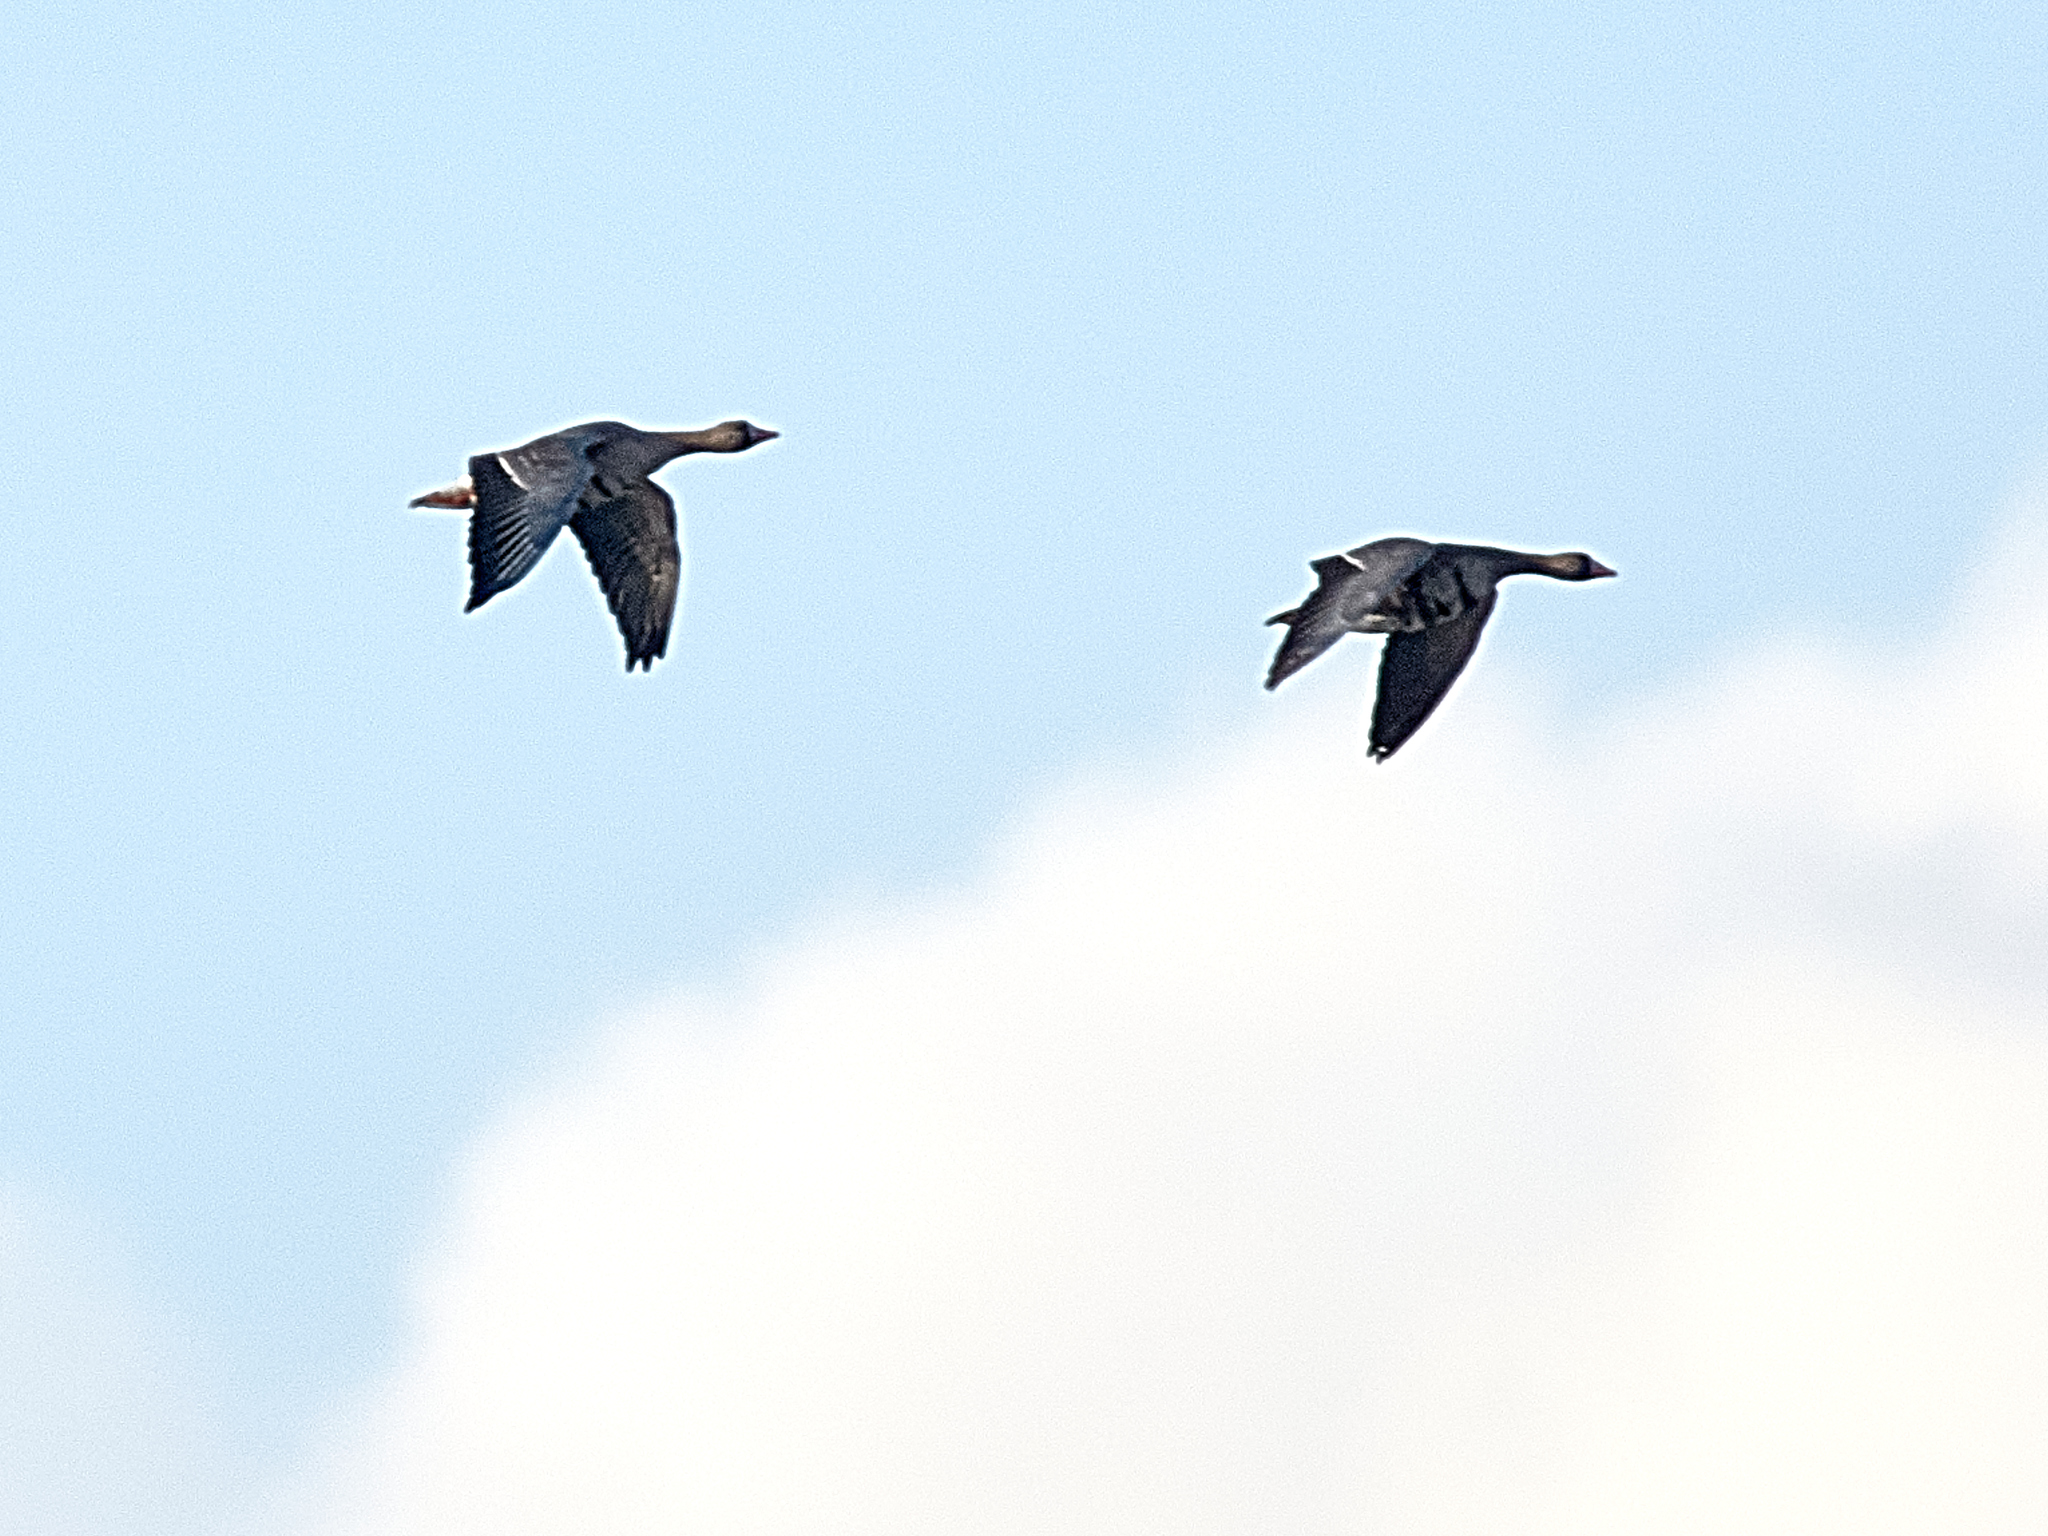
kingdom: Animalia
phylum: Chordata
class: Aves
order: Anseriformes
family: Anatidae
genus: Anser
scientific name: Anser albifrons
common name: Greater white-fronted goose
